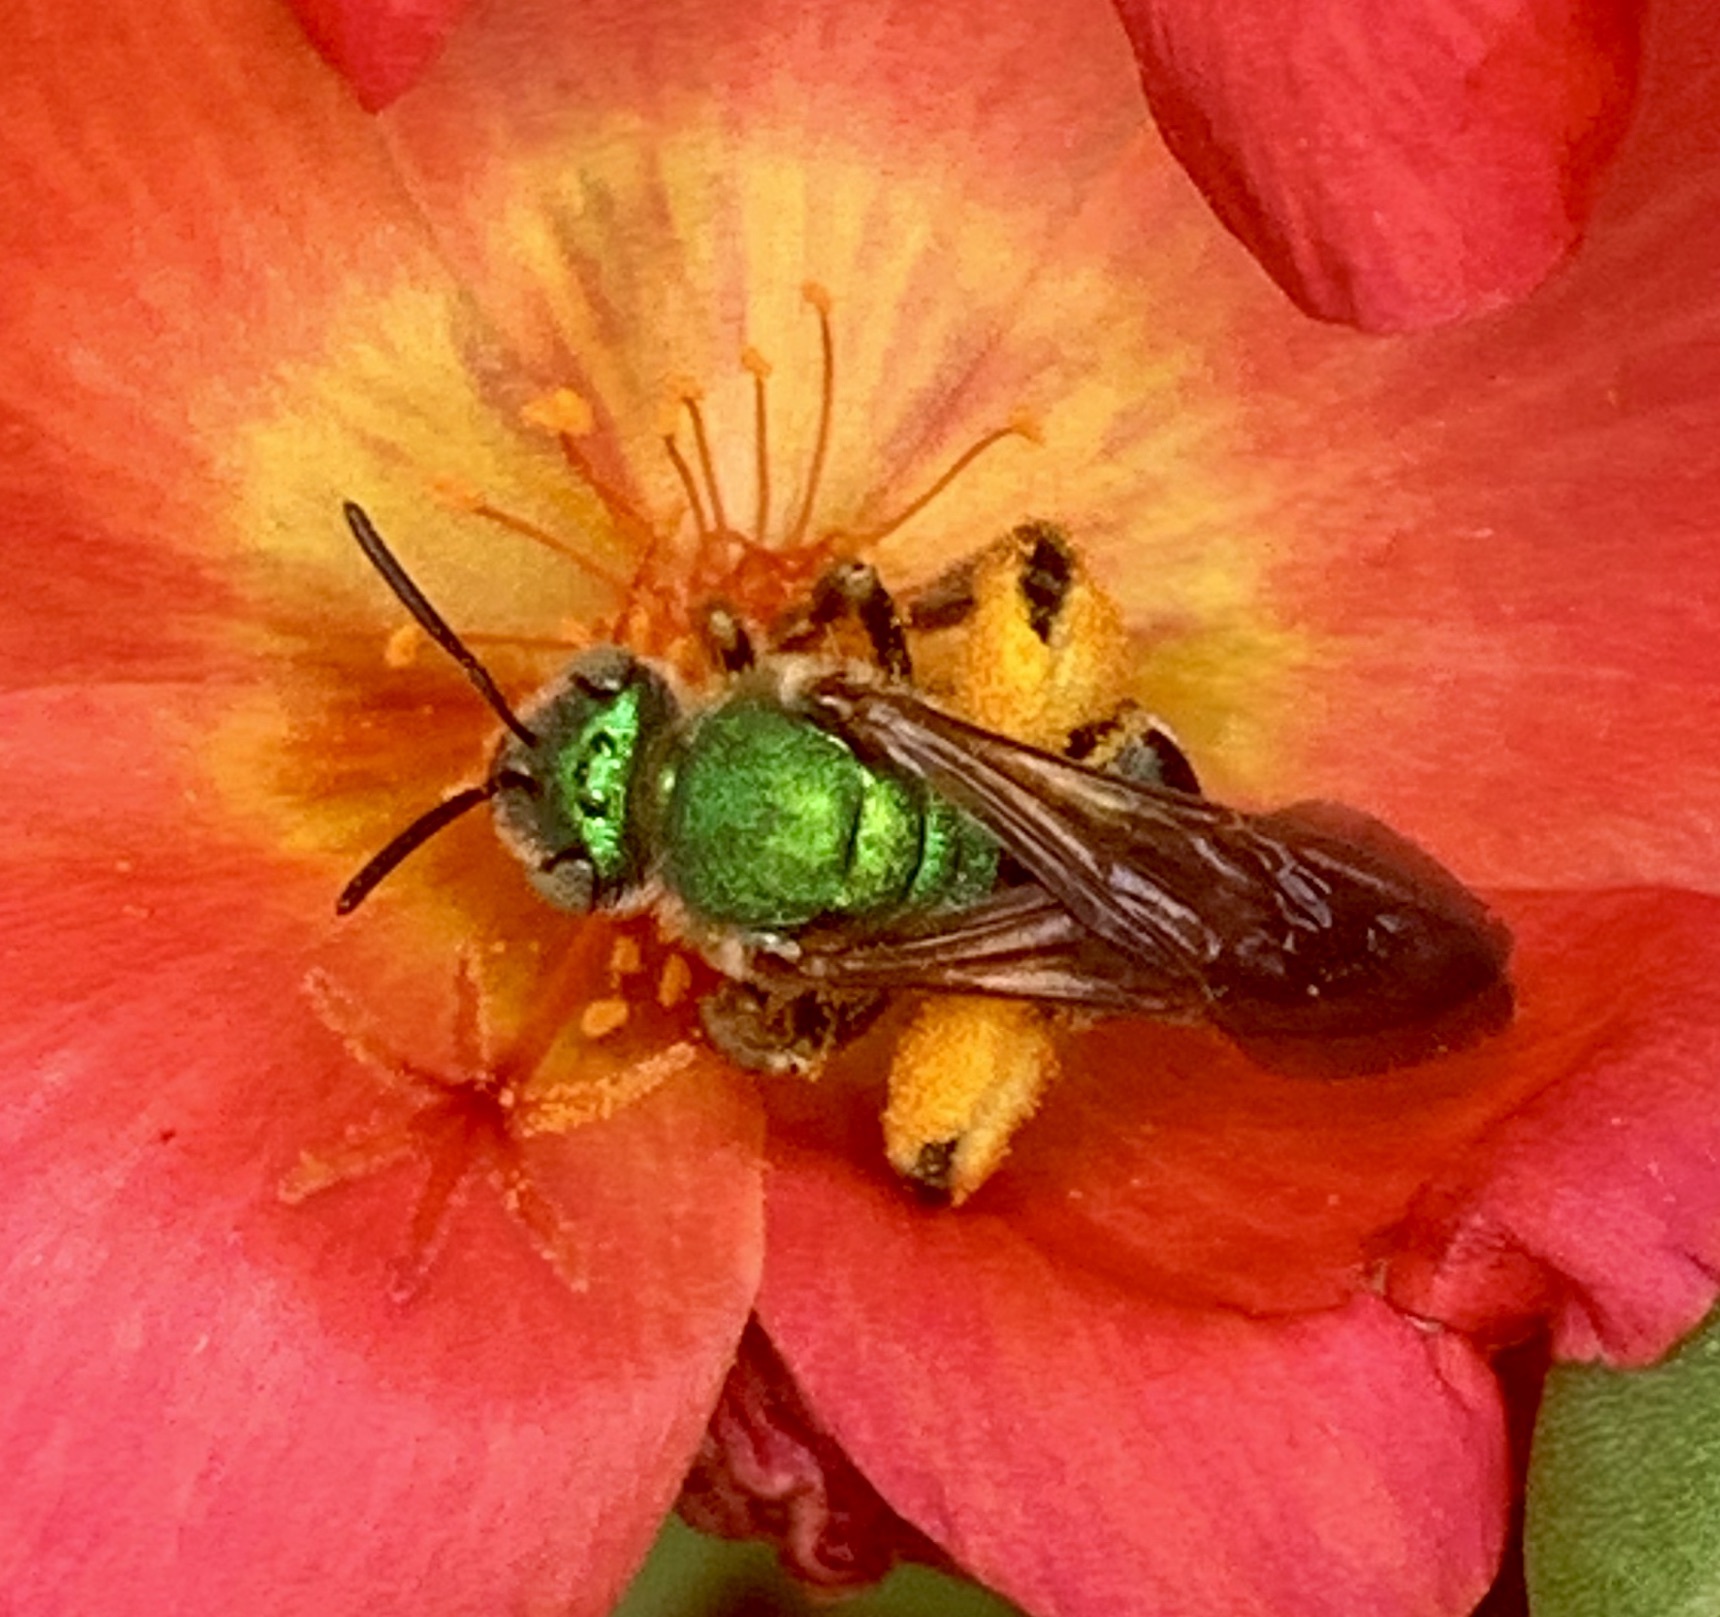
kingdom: Animalia
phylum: Arthropoda
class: Insecta
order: Hymenoptera
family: Halictidae
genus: Agapostemon
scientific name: Agapostemon splendens
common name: Brown-winged striped sweat bee
